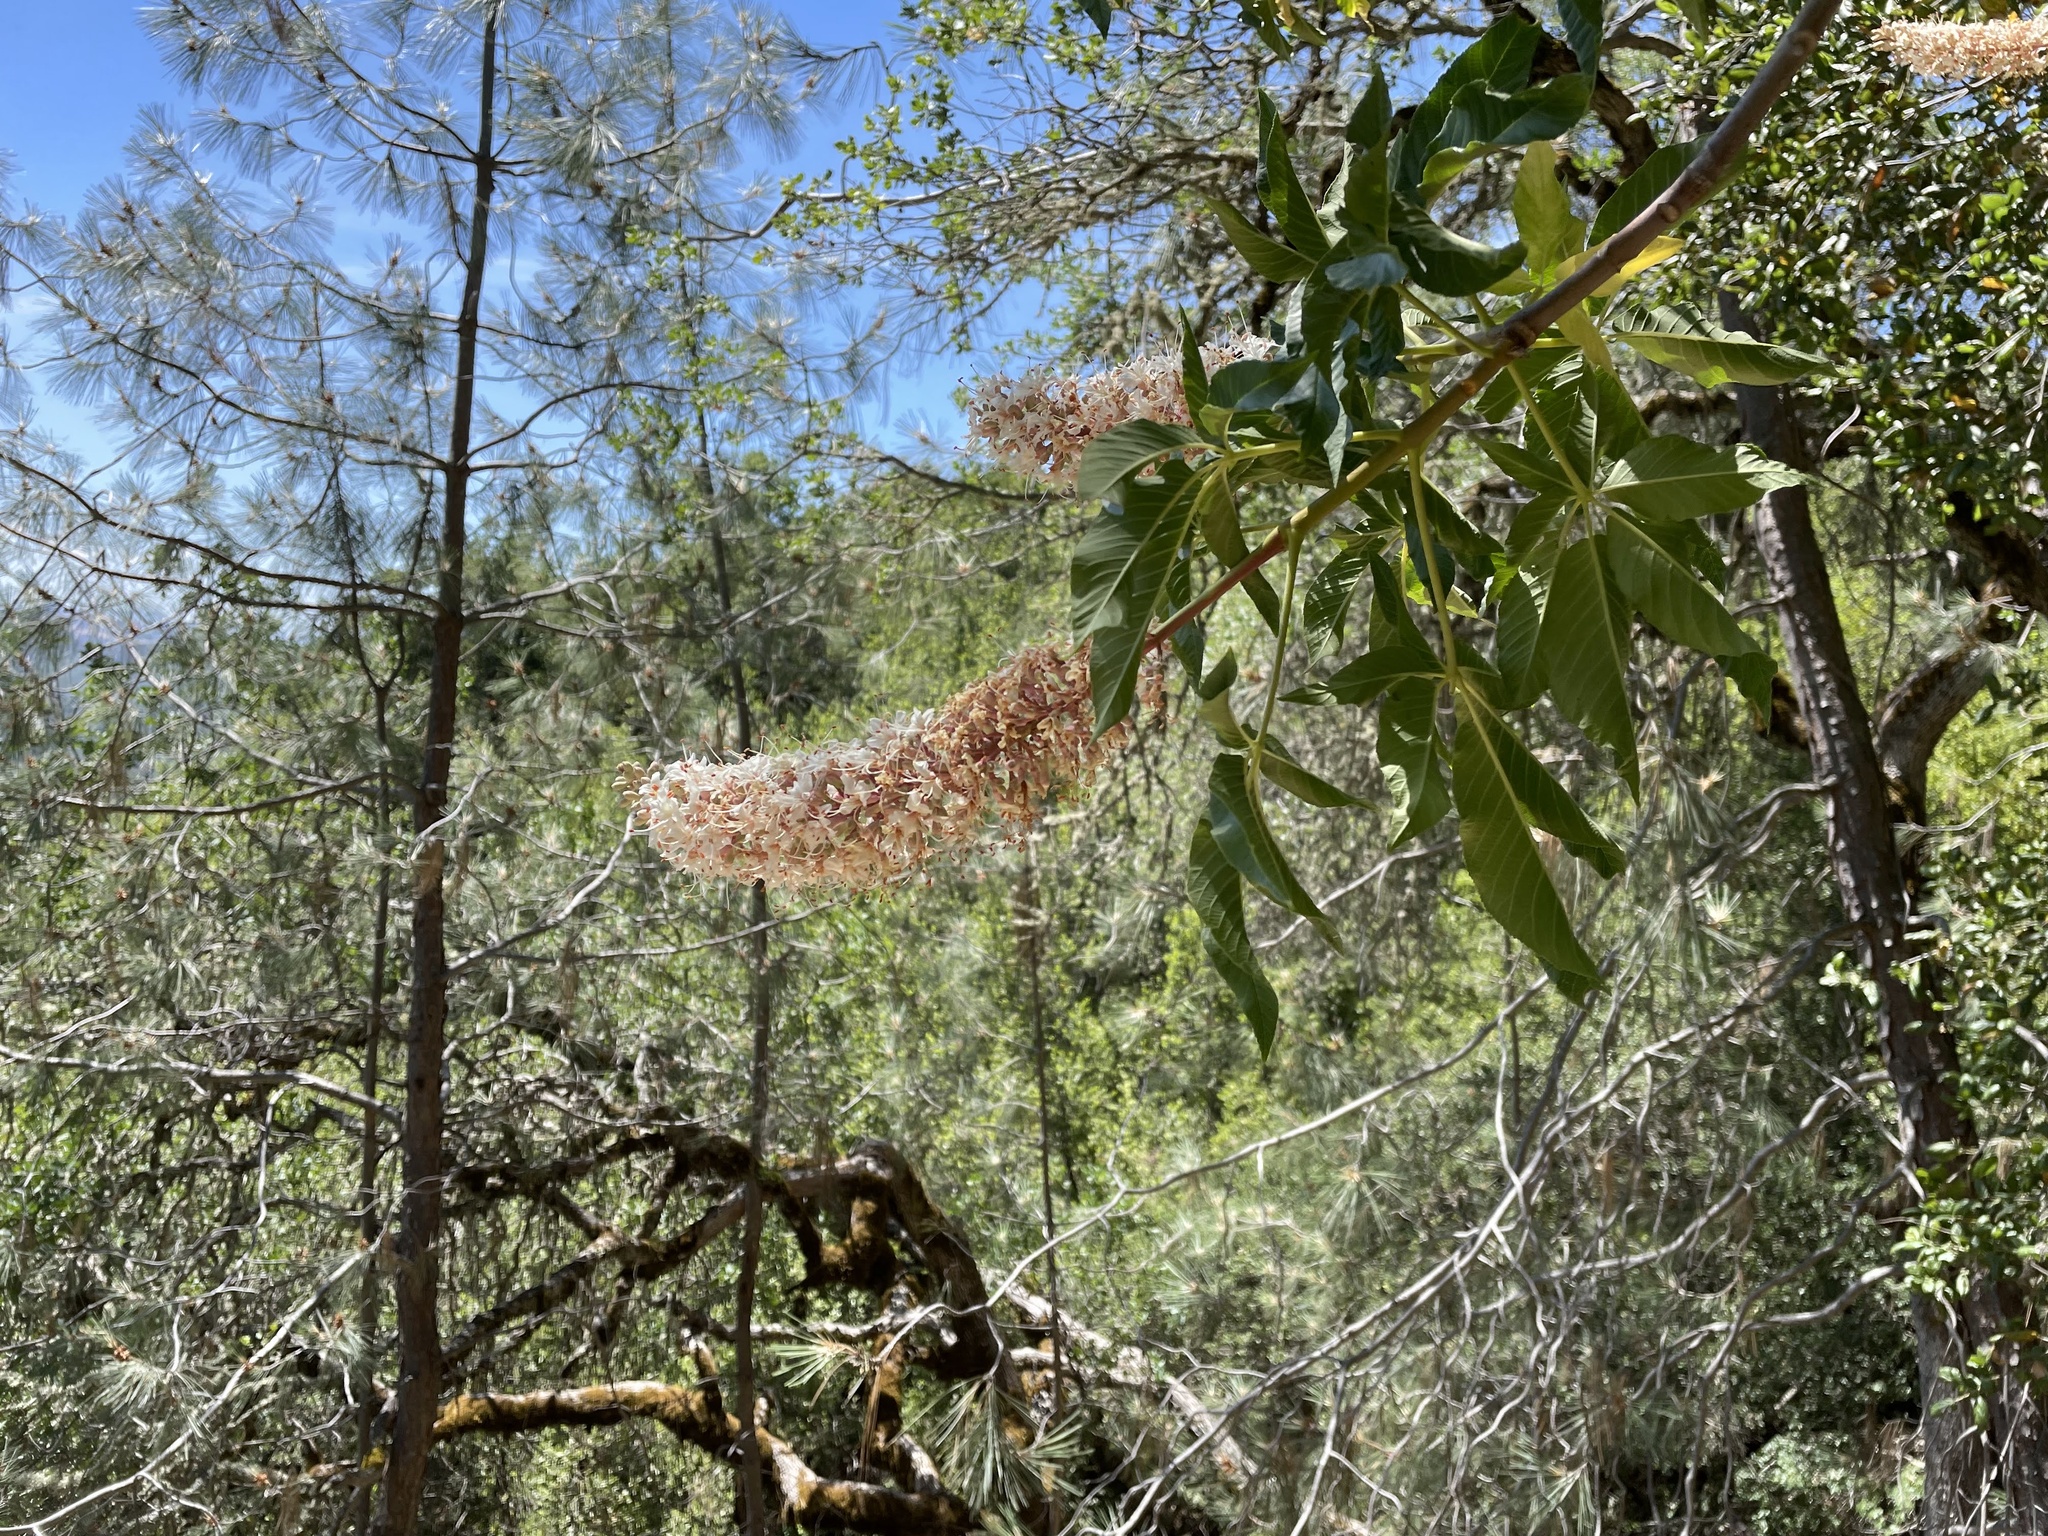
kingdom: Plantae
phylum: Tracheophyta
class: Magnoliopsida
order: Sapindales
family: Sapindaceae
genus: Aesculus
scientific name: Aesculus californica
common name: California buckeye
